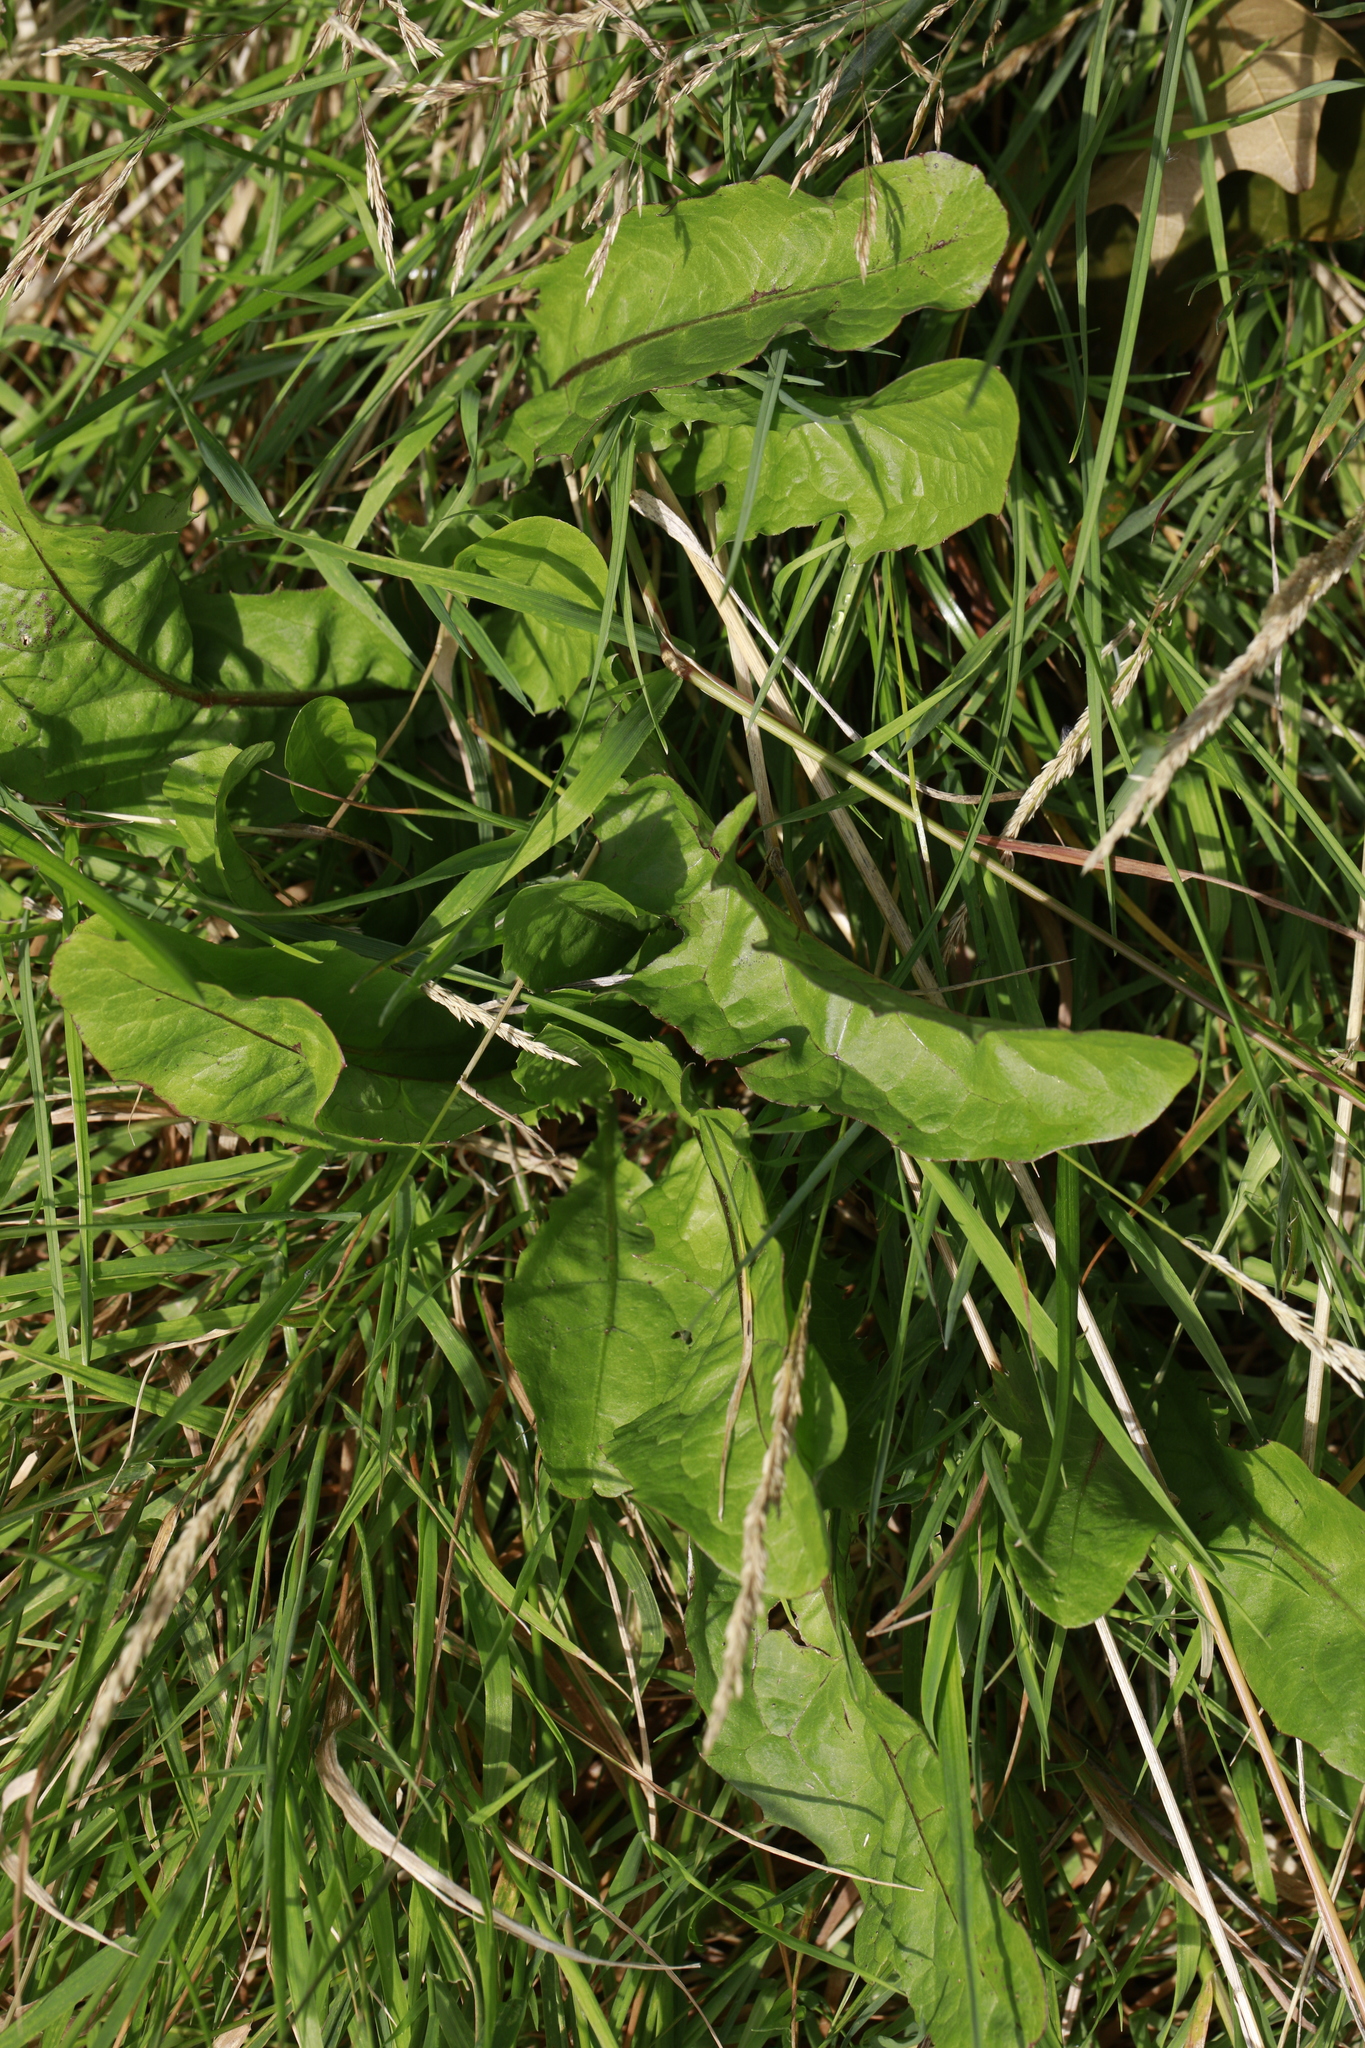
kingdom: Plantae
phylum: Tracheophyta
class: Magnoliopsida
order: Asterales
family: Asteraceae
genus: Taraxacum
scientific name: Taraxacum officinale
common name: Common dandelion
